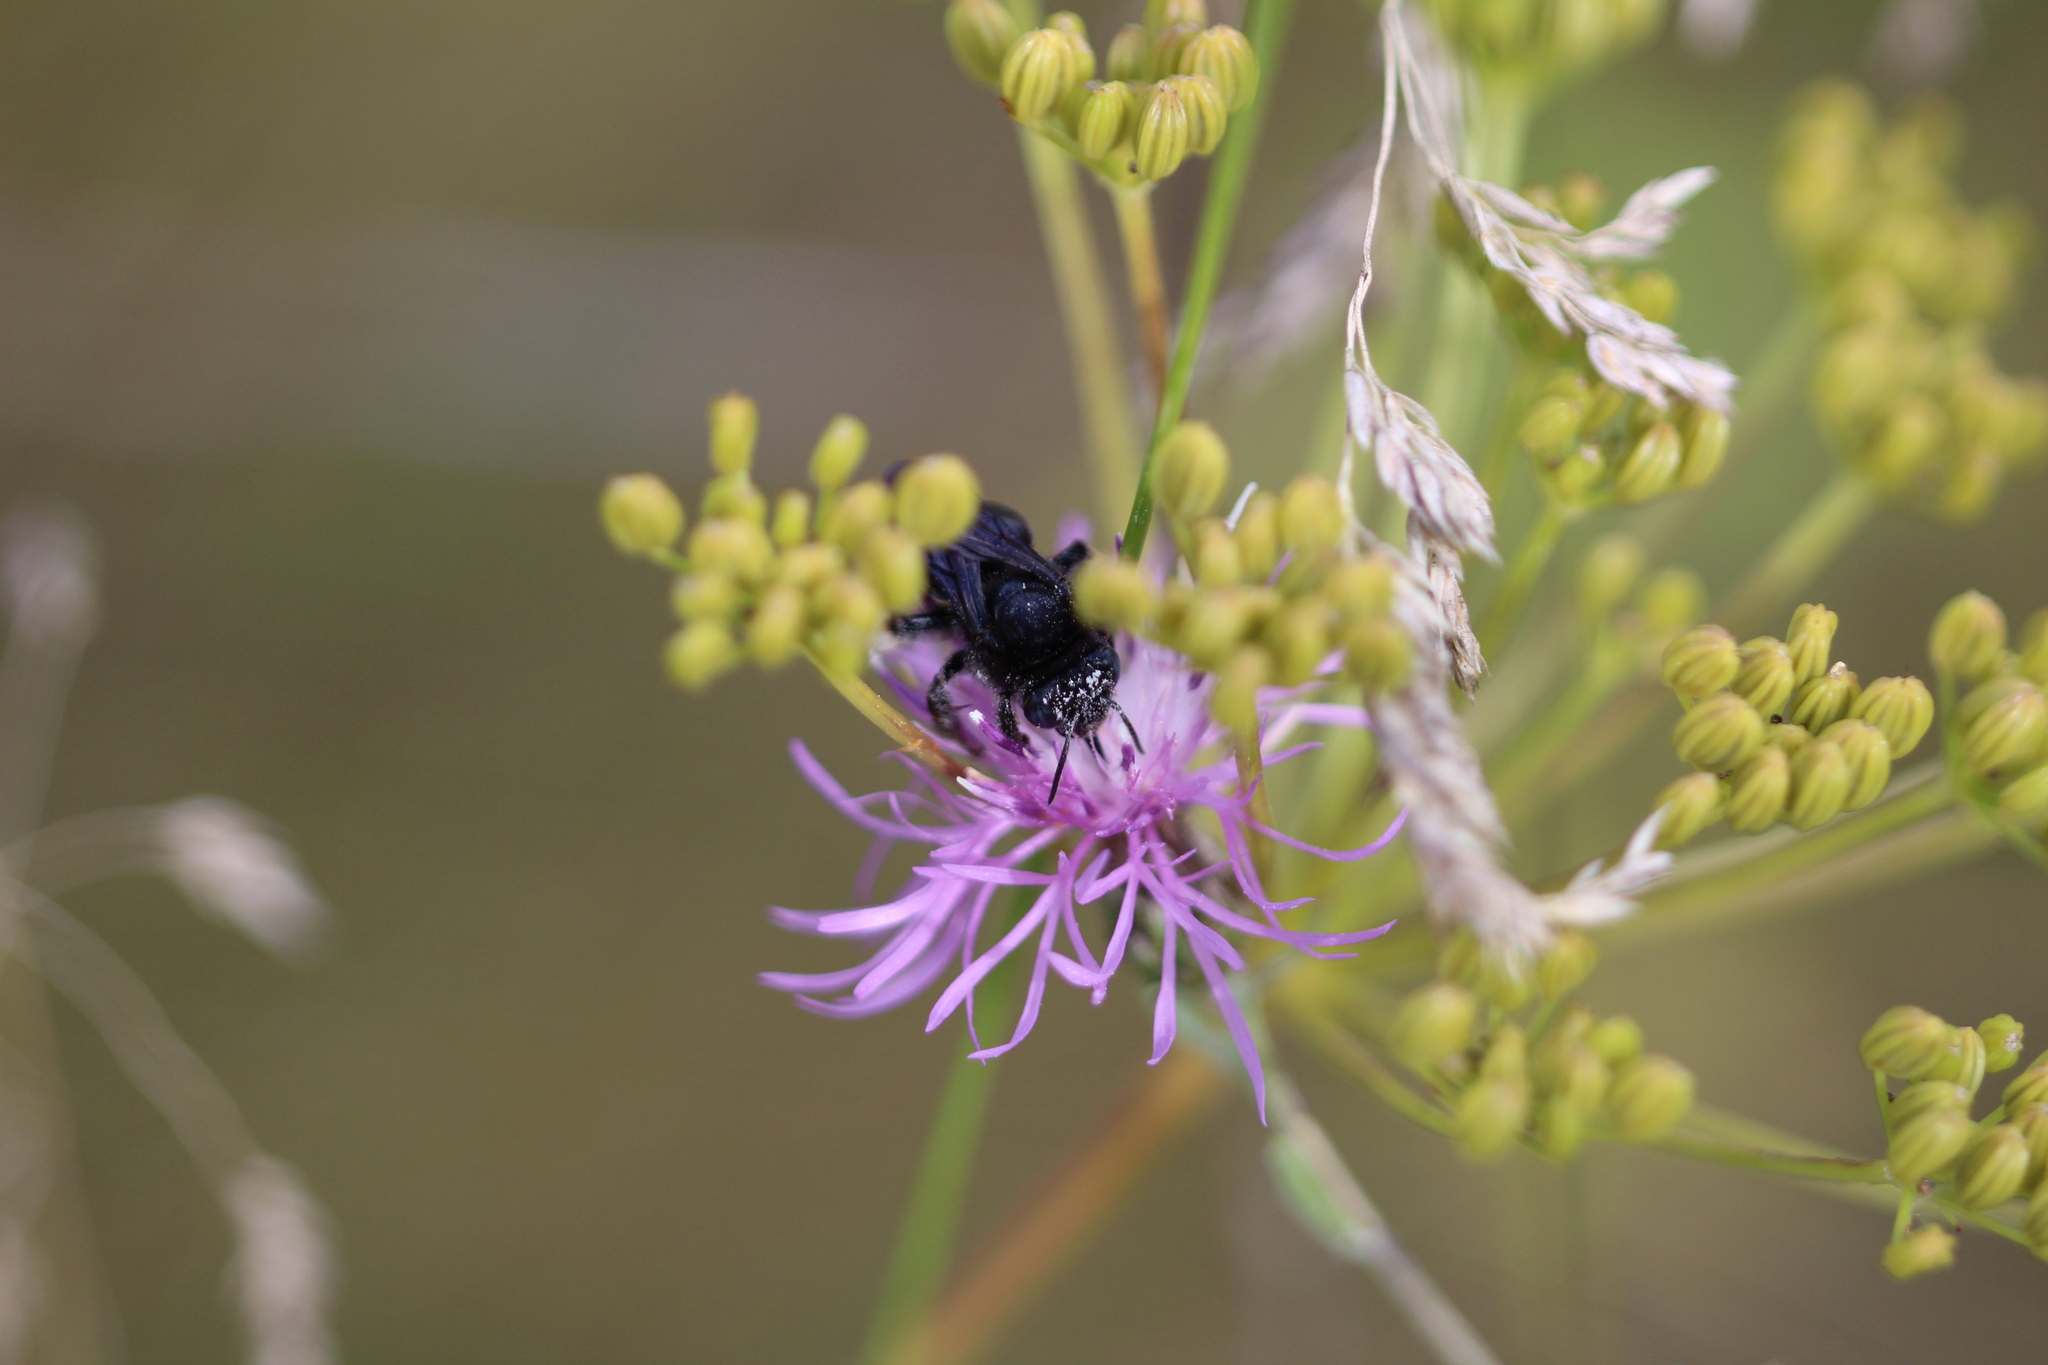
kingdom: Animalia
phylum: Arthropoda
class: Insecta
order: Hymenoptera
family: Apidae
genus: Melissodes
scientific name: Melissodes bimaculatus
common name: Two-spotted long-horned bee
